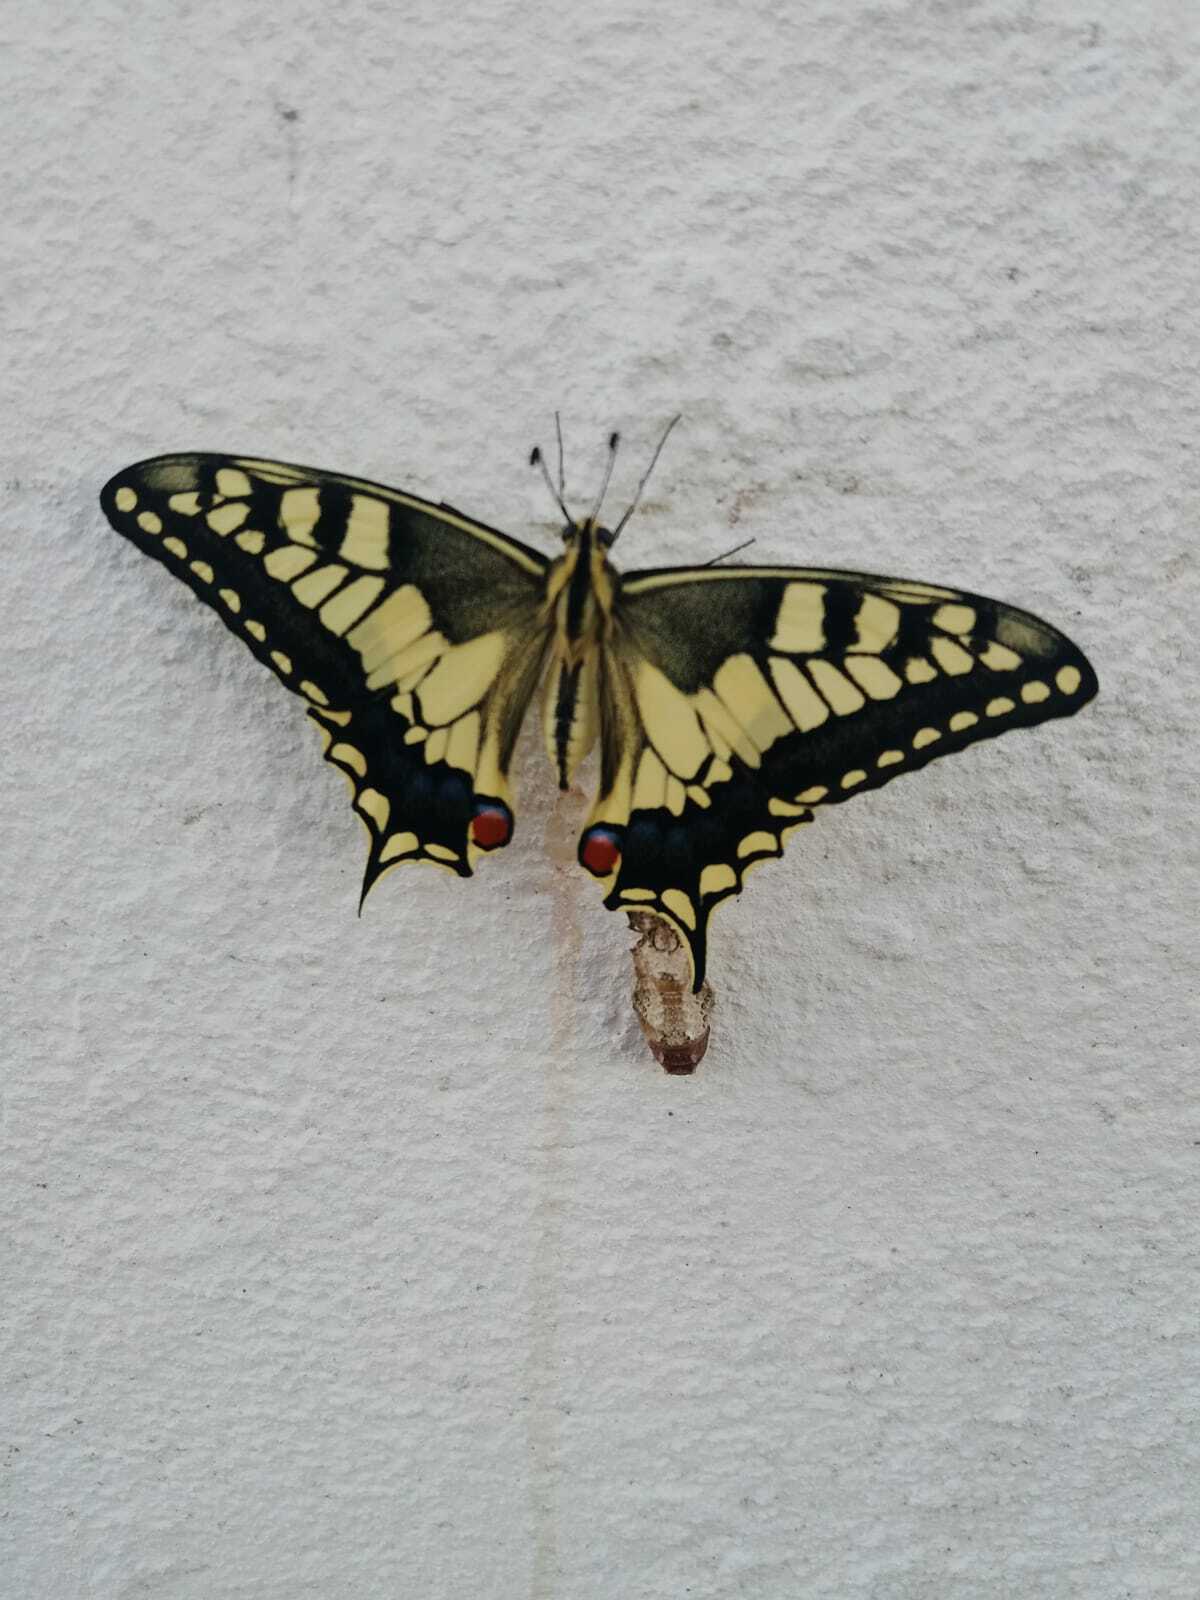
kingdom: Animalia
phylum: Arthropoda
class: Insecta
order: Lepidoptera
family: Papilionidae
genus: Papilio
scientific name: Papilio machaon
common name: Swallowtail
